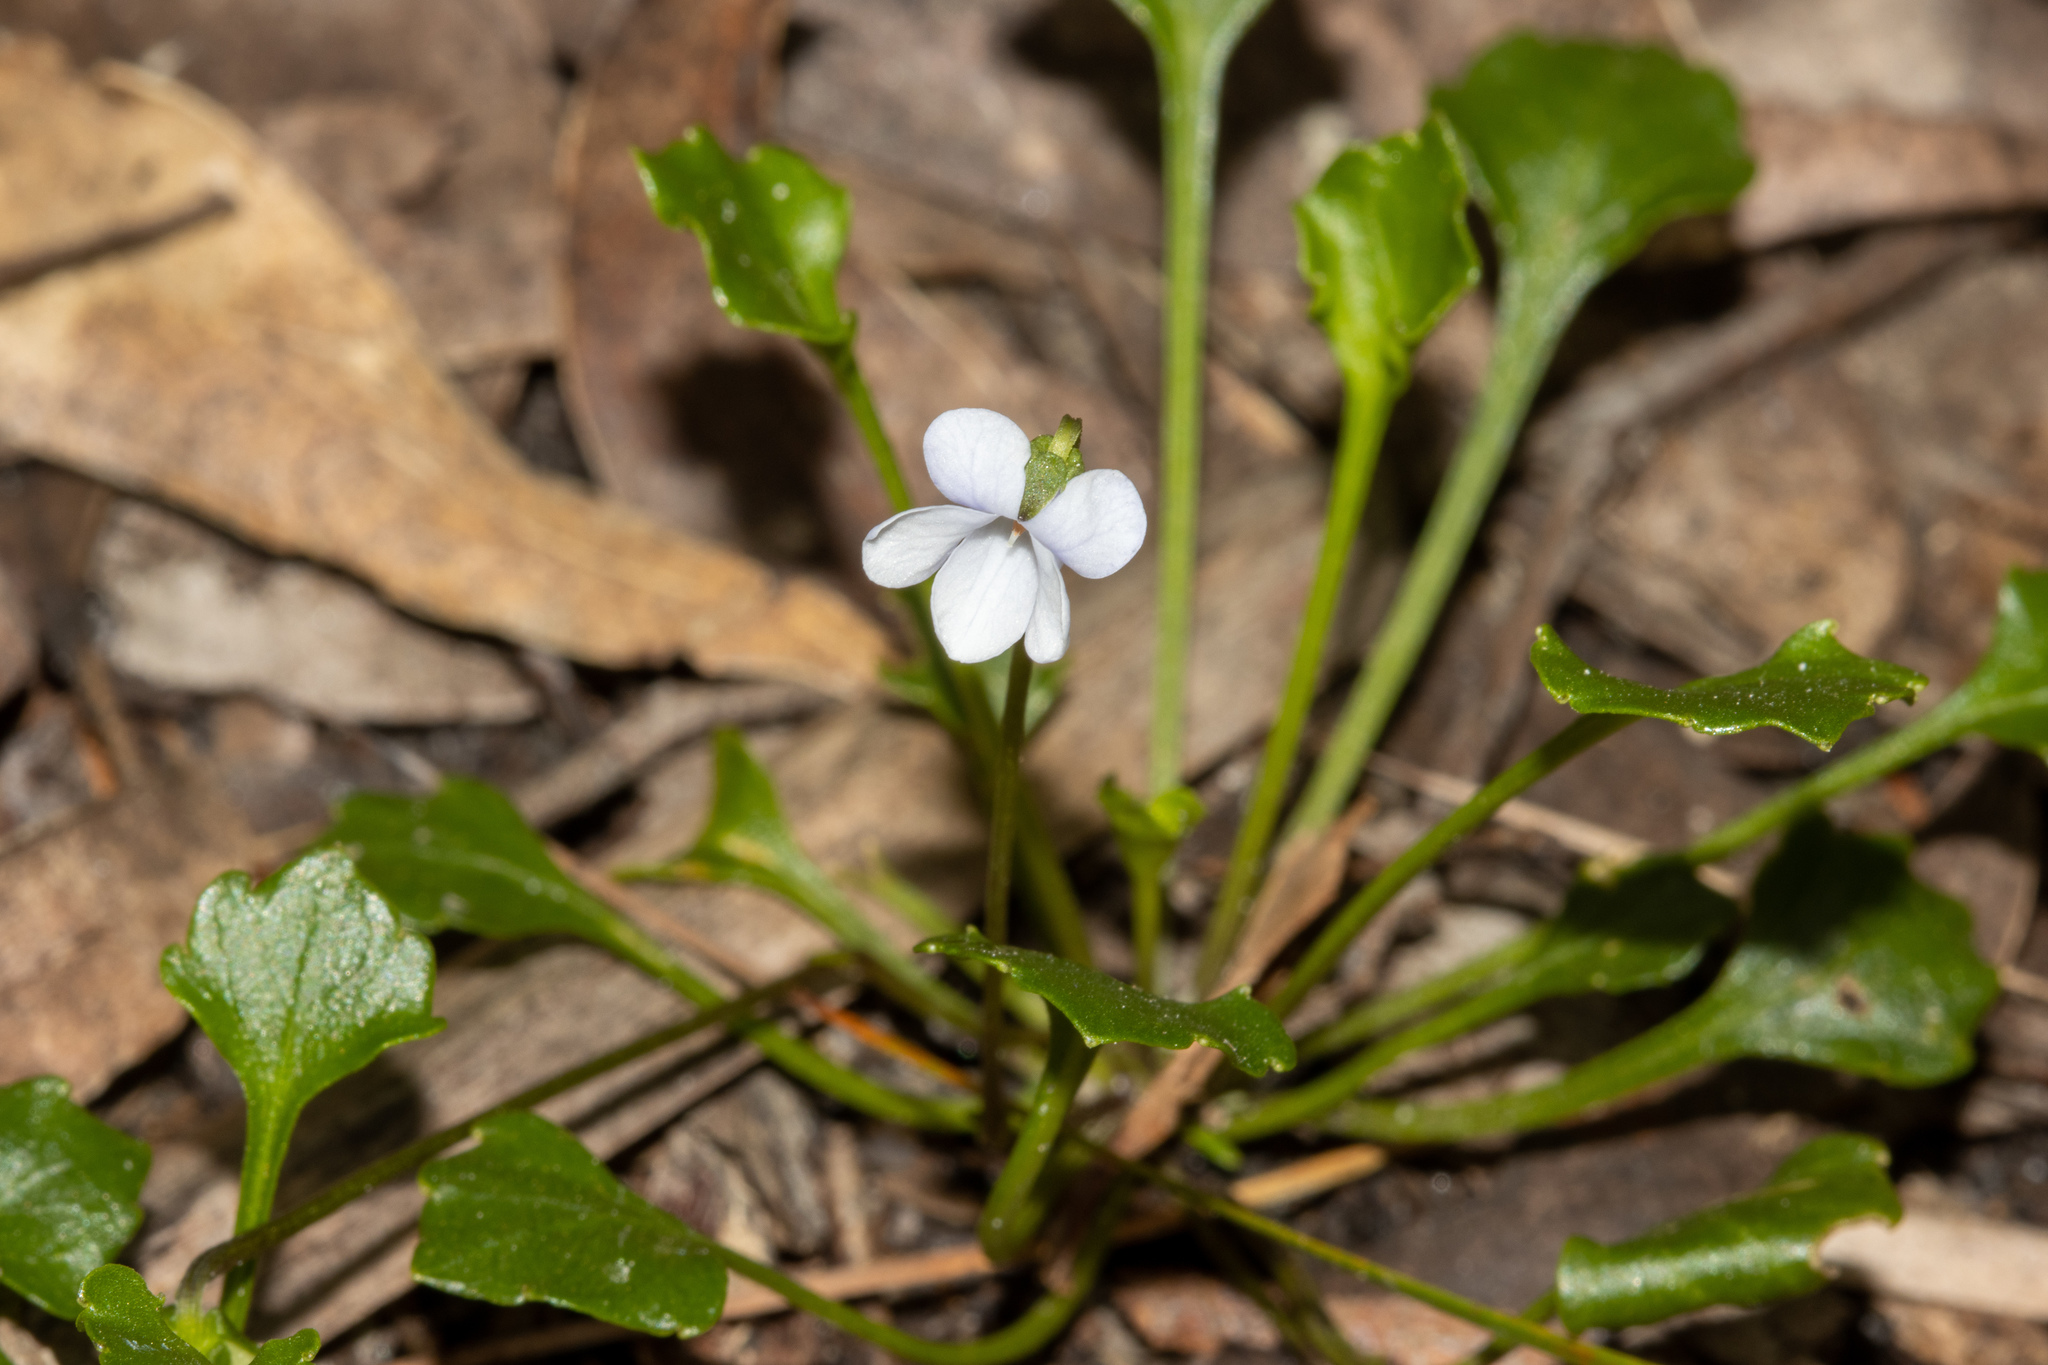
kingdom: Plantae
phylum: Tracheophyta
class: Magnoliopsida
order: Malpighiales
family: Violaceae
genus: Viola
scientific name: Viola sieberiana
